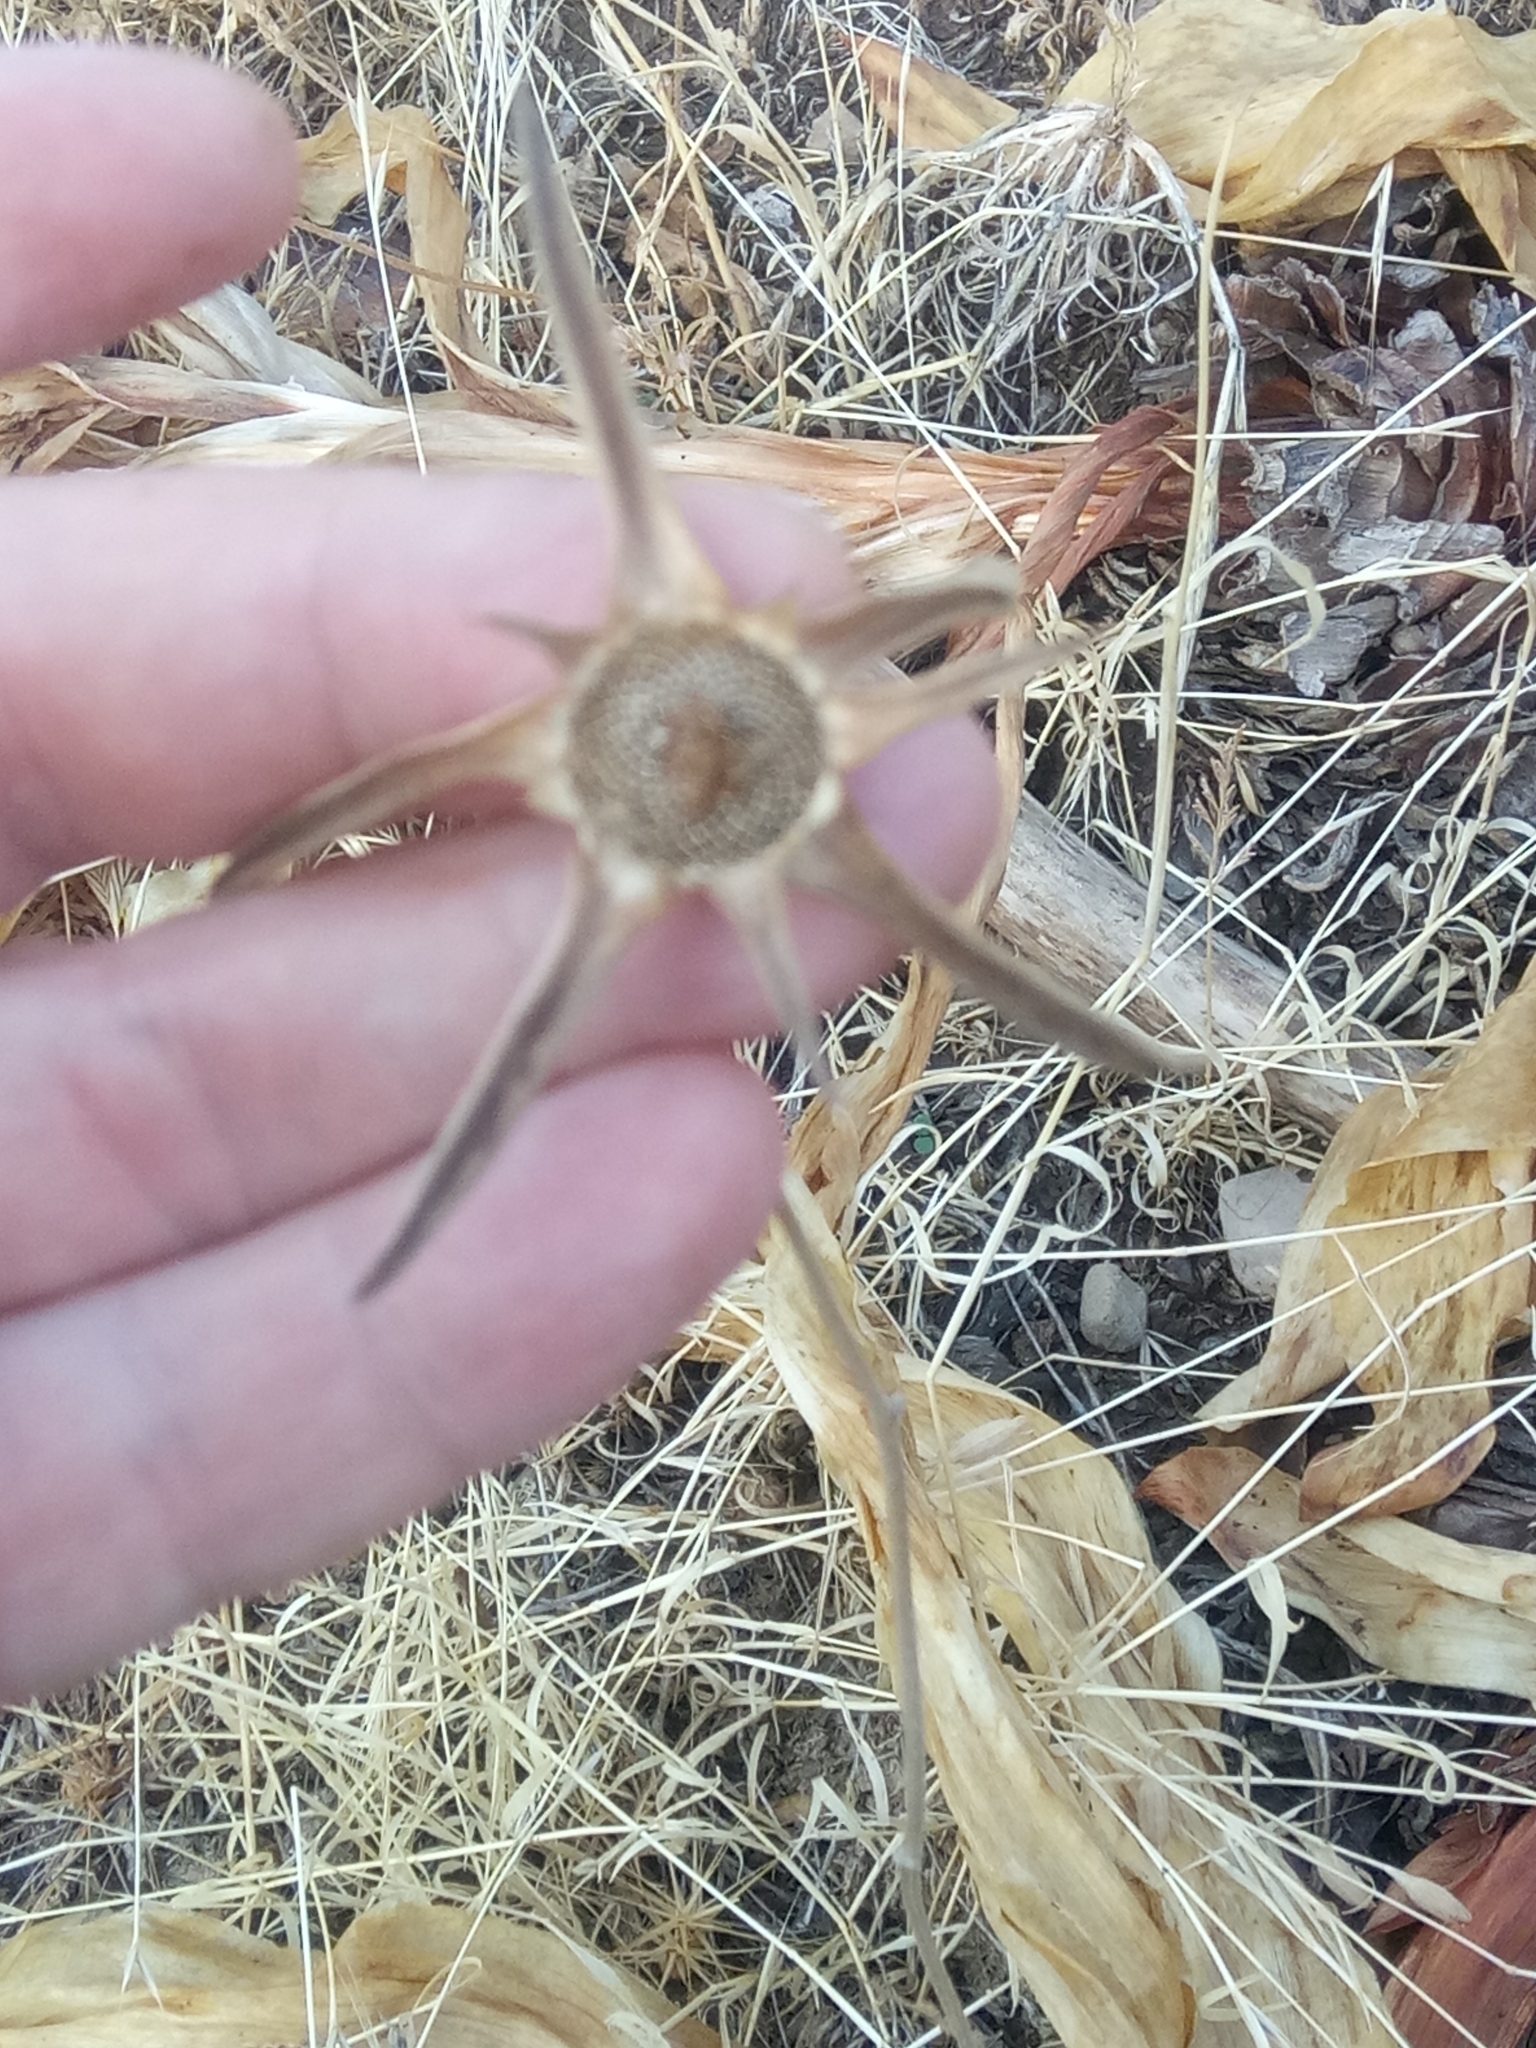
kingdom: Plantae
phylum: Tracheophyta
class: Magnoliopsida
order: Asterales
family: Asteraceae
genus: Pallenis
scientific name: Pallenis spinosa
